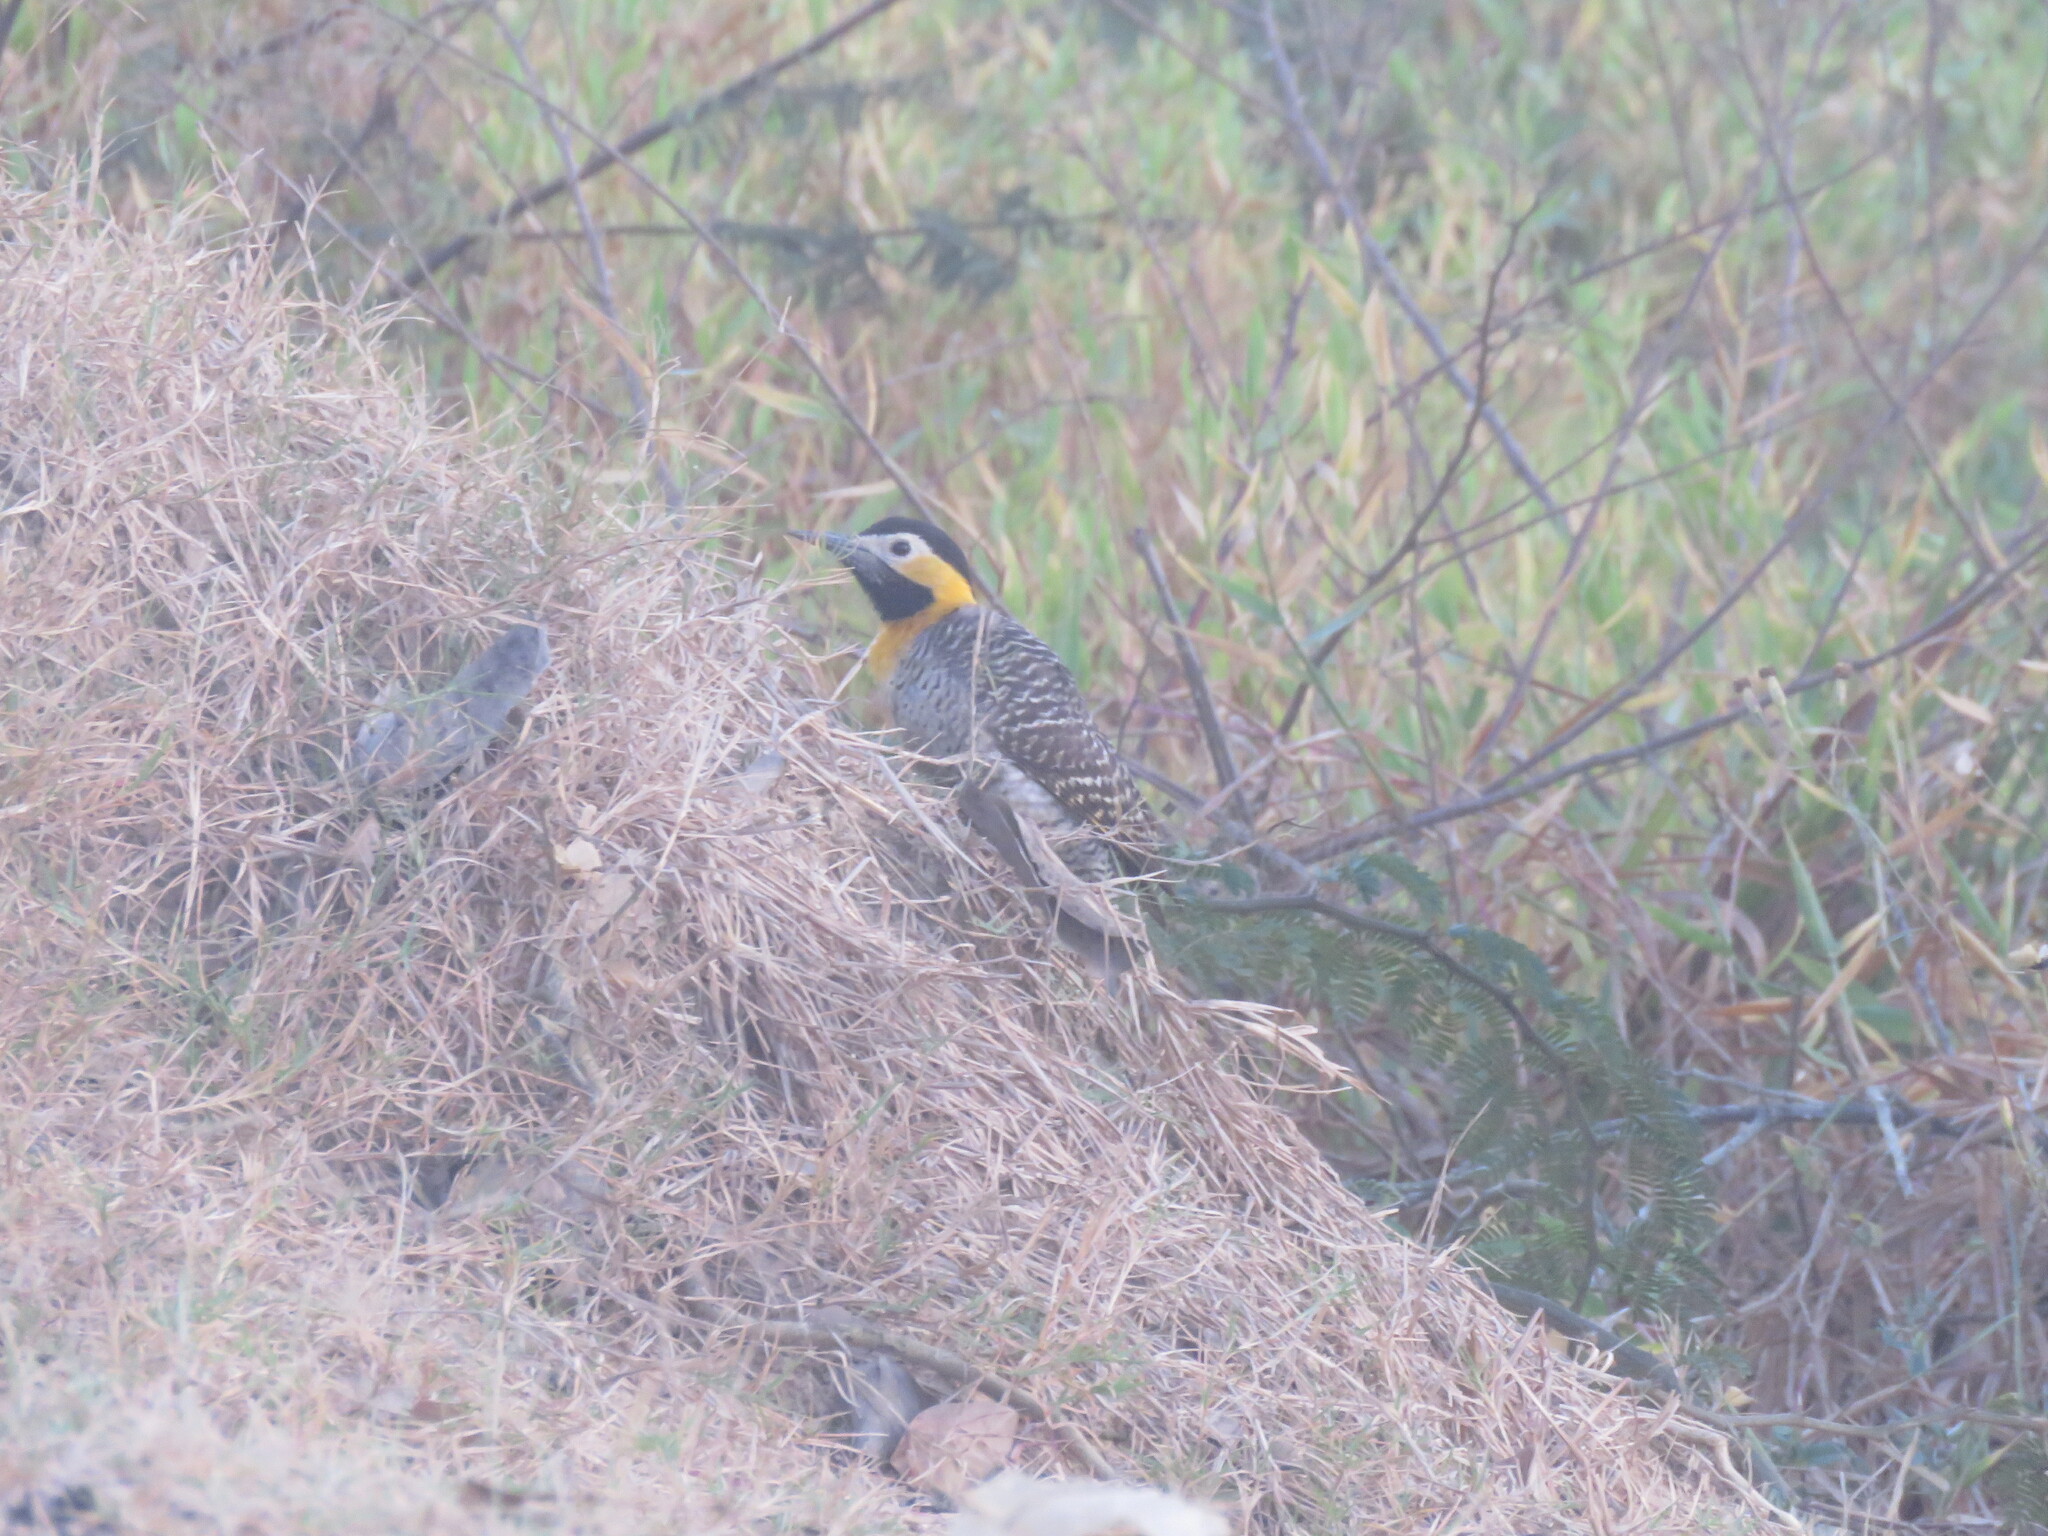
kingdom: Animalia
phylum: Chordata
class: Aves
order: Piciformes
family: Picidae
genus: Colaptes
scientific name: Colaptes campestris
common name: Campo flicker
